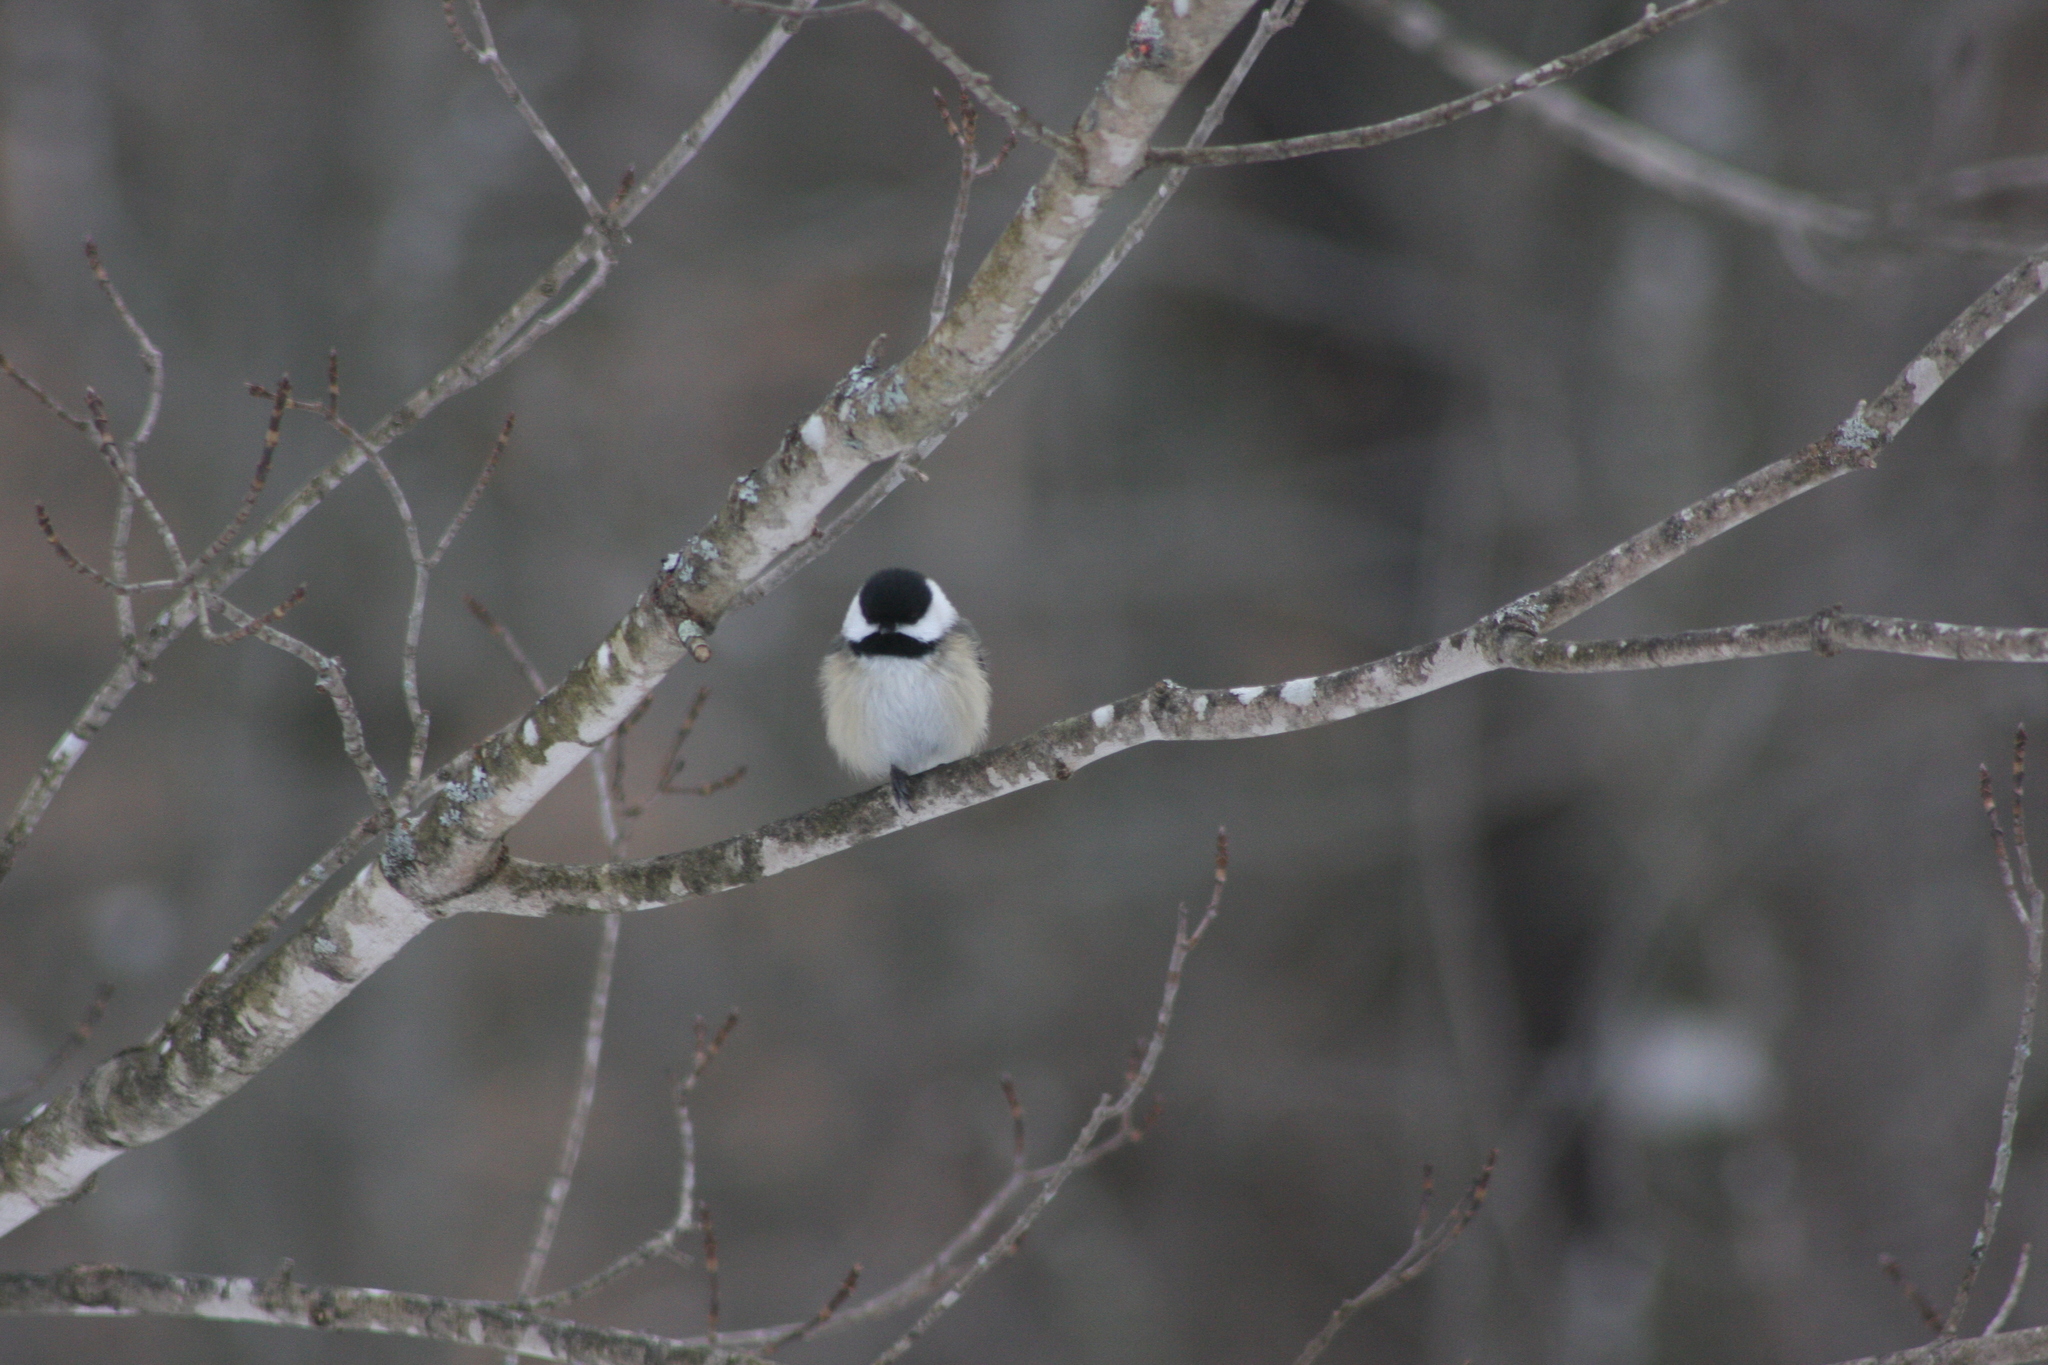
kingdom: Animalia
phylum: Chordata
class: Aves
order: Passeriformes
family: Paridae
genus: Poecile
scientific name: Poecile atricapillus
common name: Black-capped chickadee
